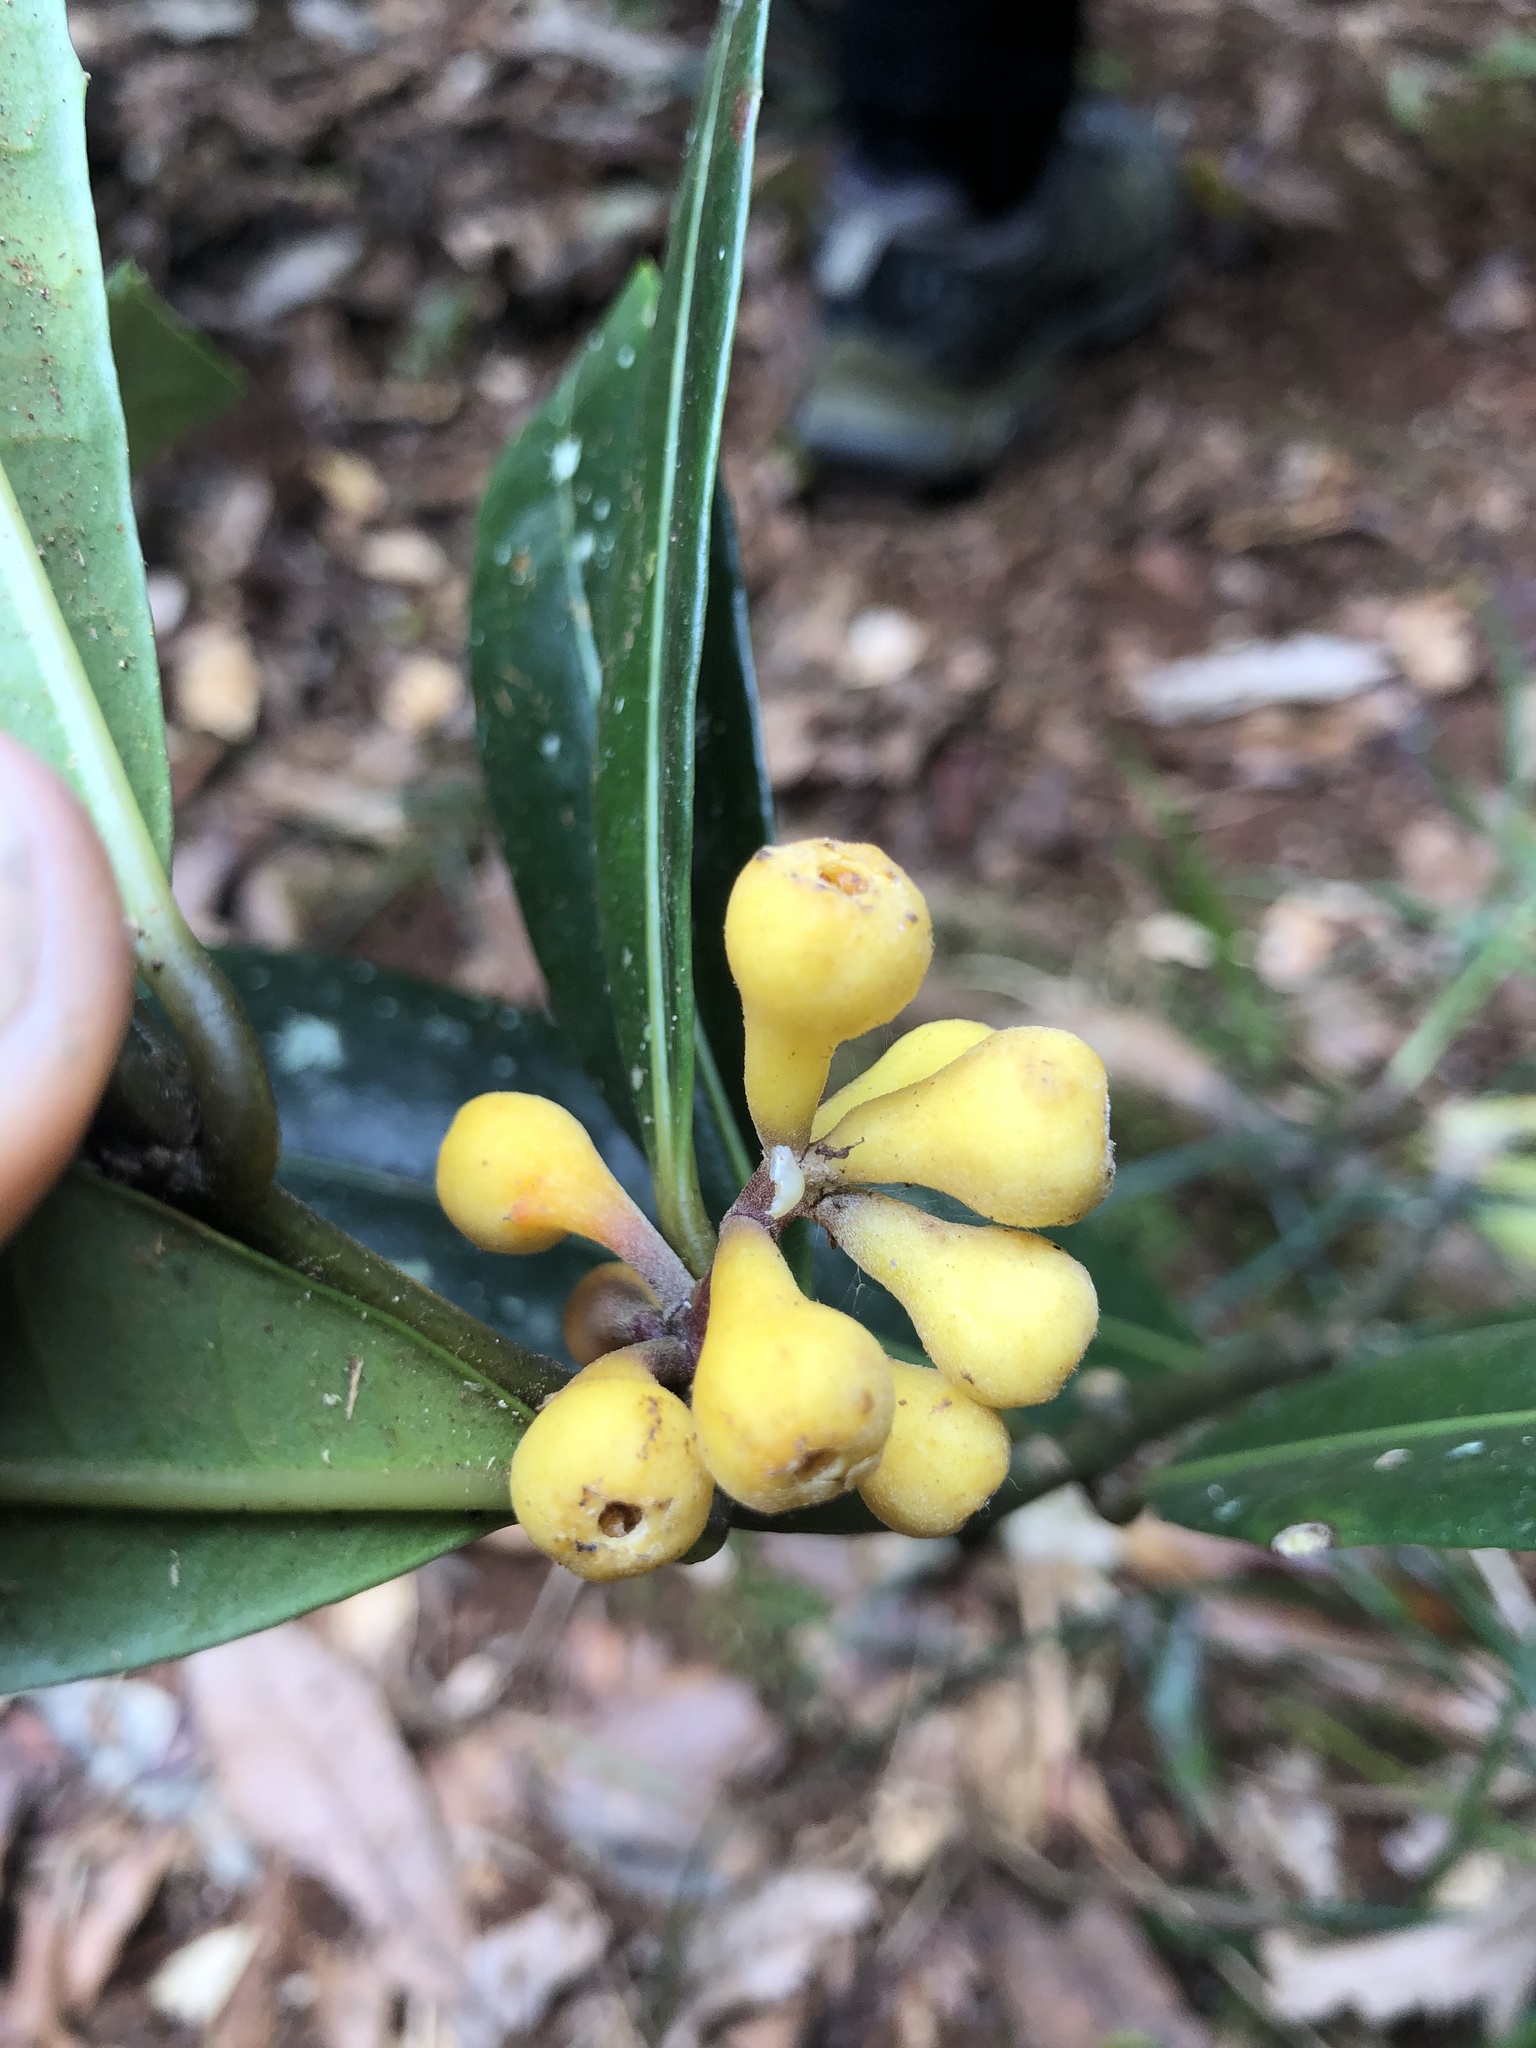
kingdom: Plantae
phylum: Tracheophyta
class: Magnoliopsida
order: Laurales
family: Monimiaceae
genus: Wilkiea
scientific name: Wilkiea austroqueenslandica
